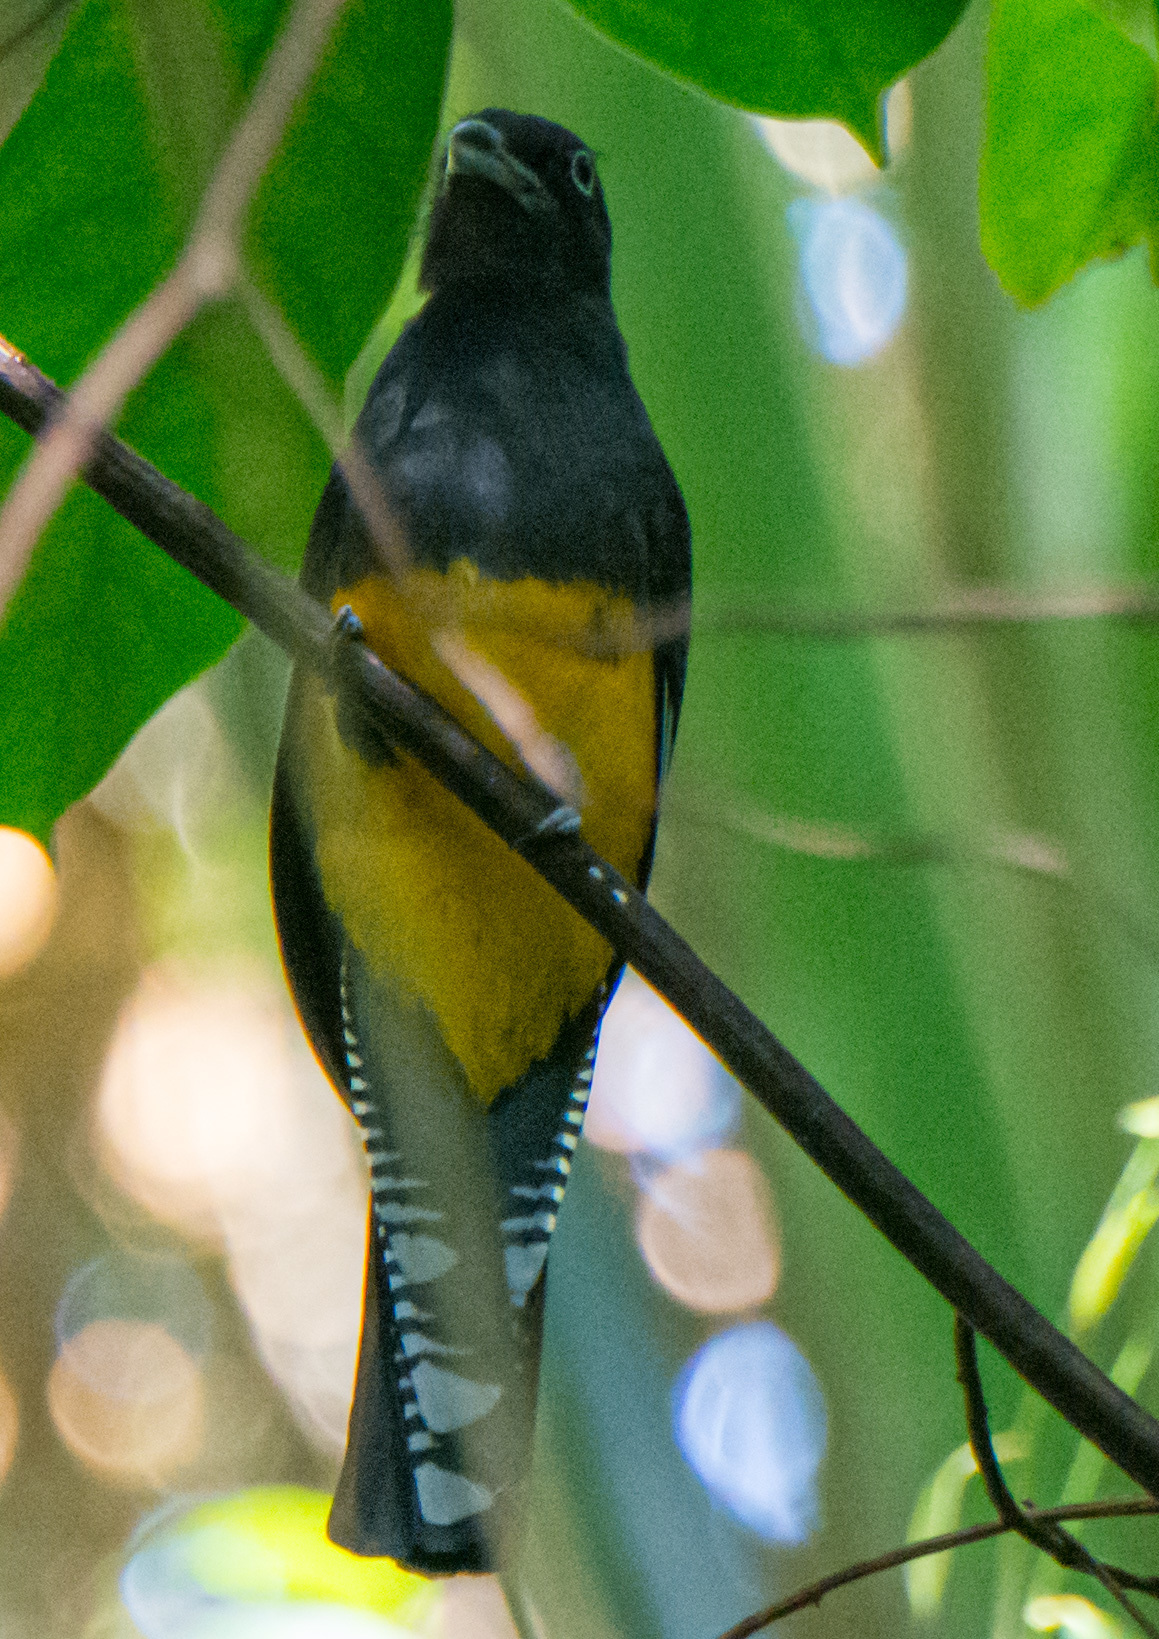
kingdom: Animalia
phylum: Chordata
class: Aves
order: Trogoniformes
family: Trogonidae
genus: Trogon
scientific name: Trogon viridis
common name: Green-backed trogon
